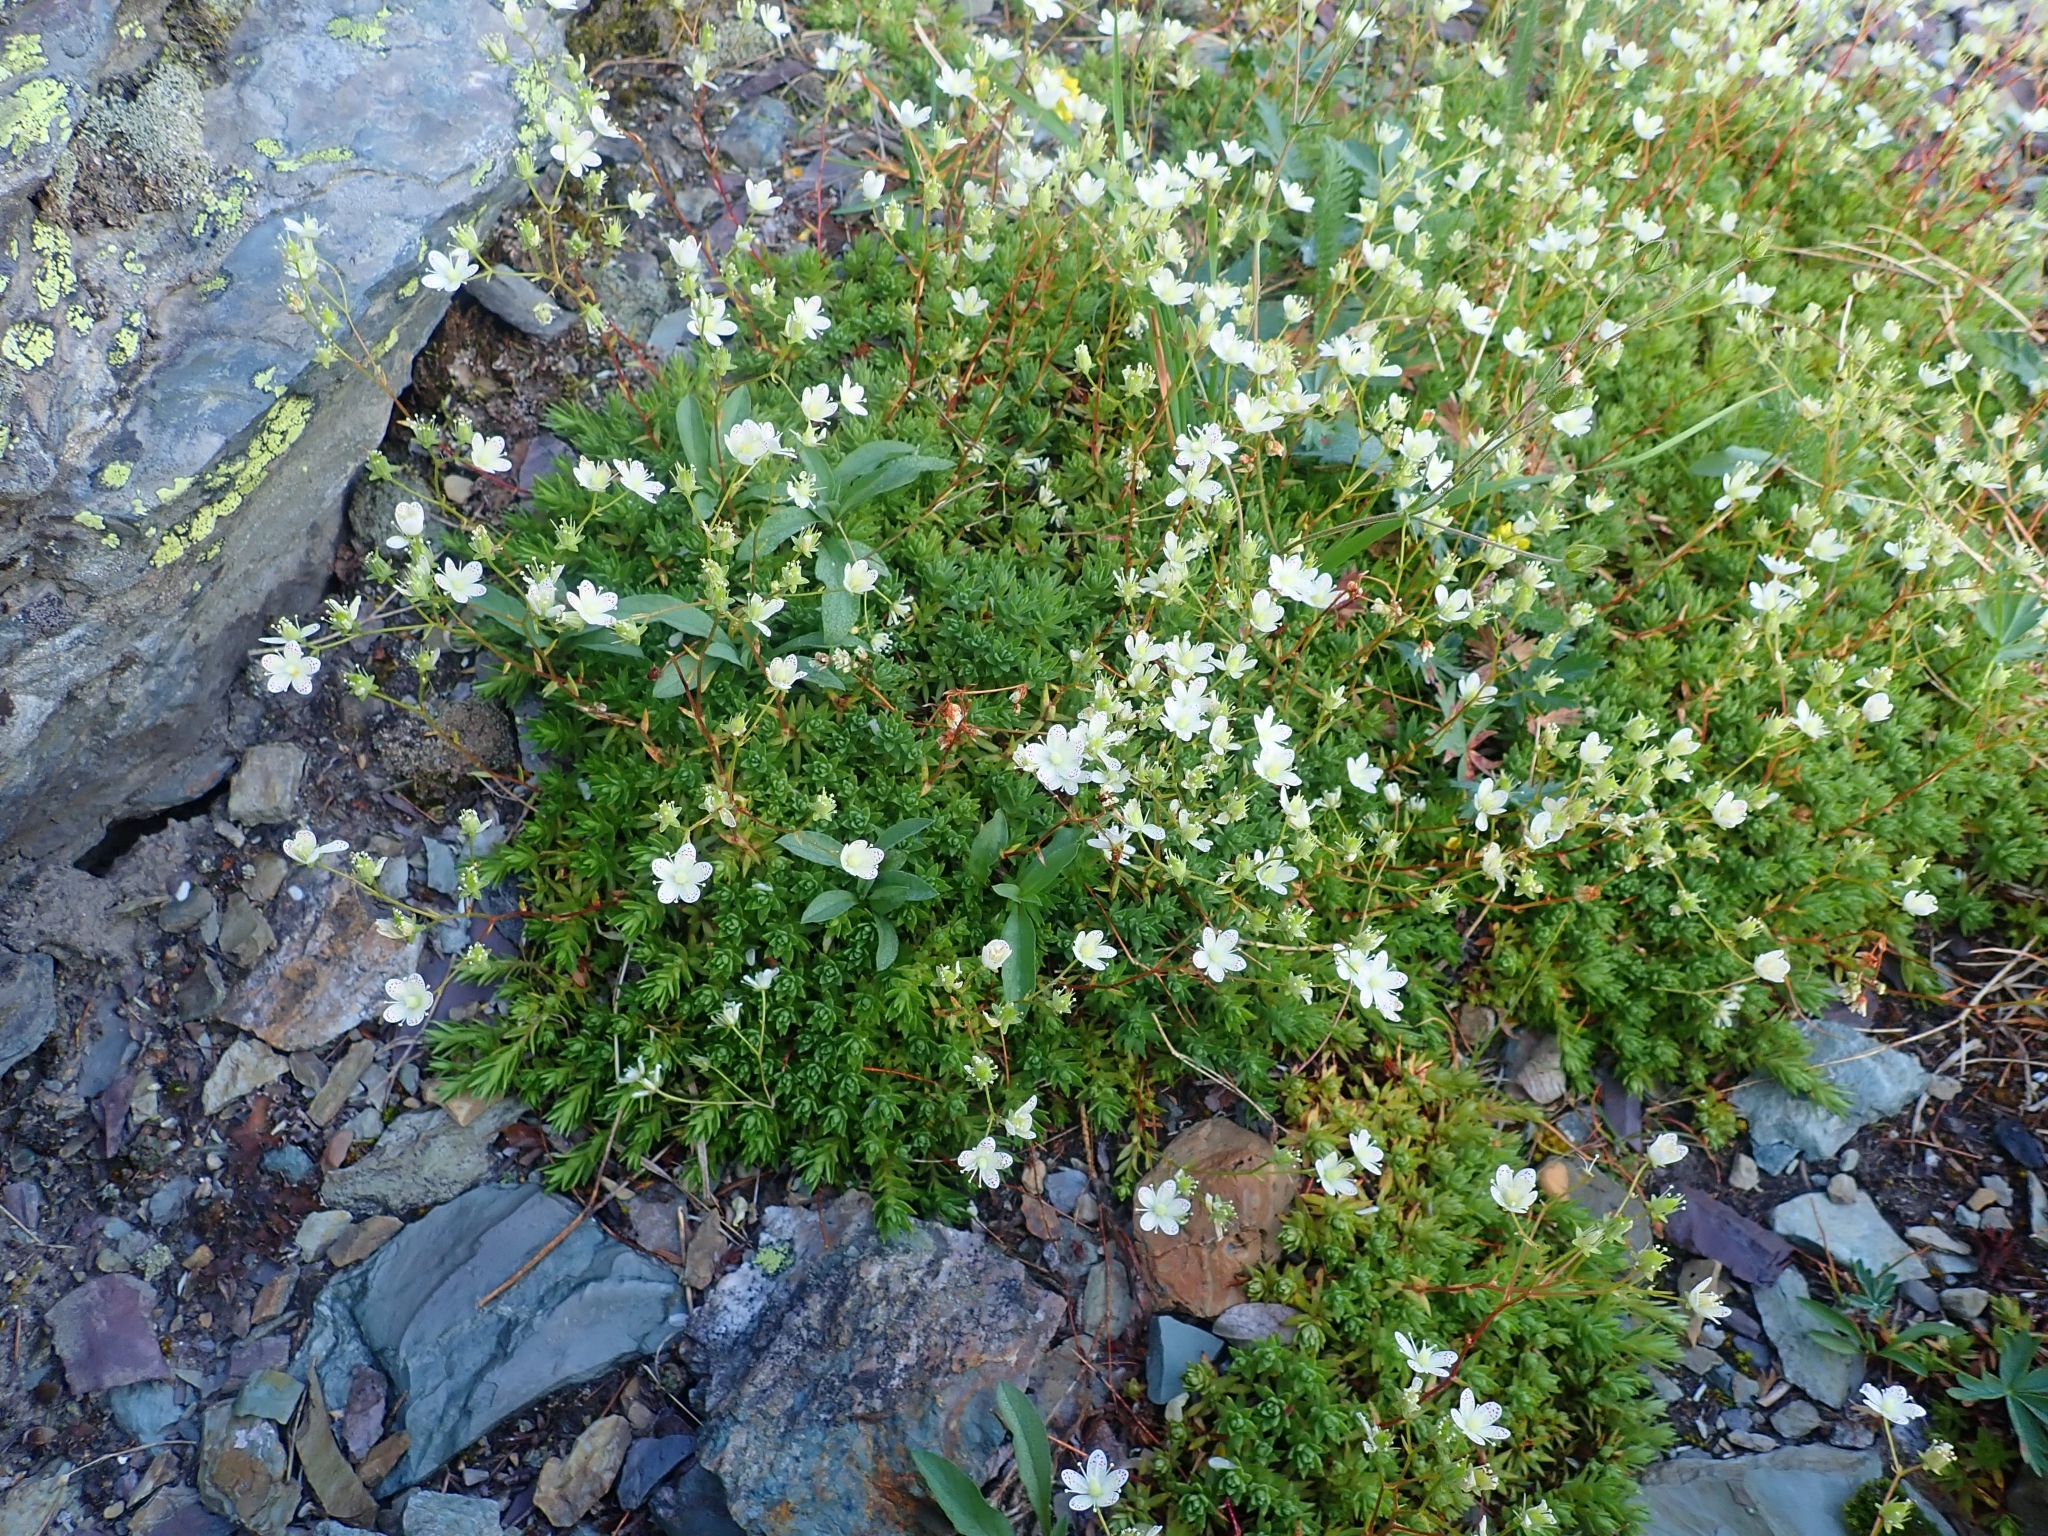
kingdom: Plantae
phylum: Tracheophyta
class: Magnoliopsida
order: Saxifragales
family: Saxifragaceae
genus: Saxifraga
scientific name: Saxifraga bronchialis
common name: Matted saxifrage
